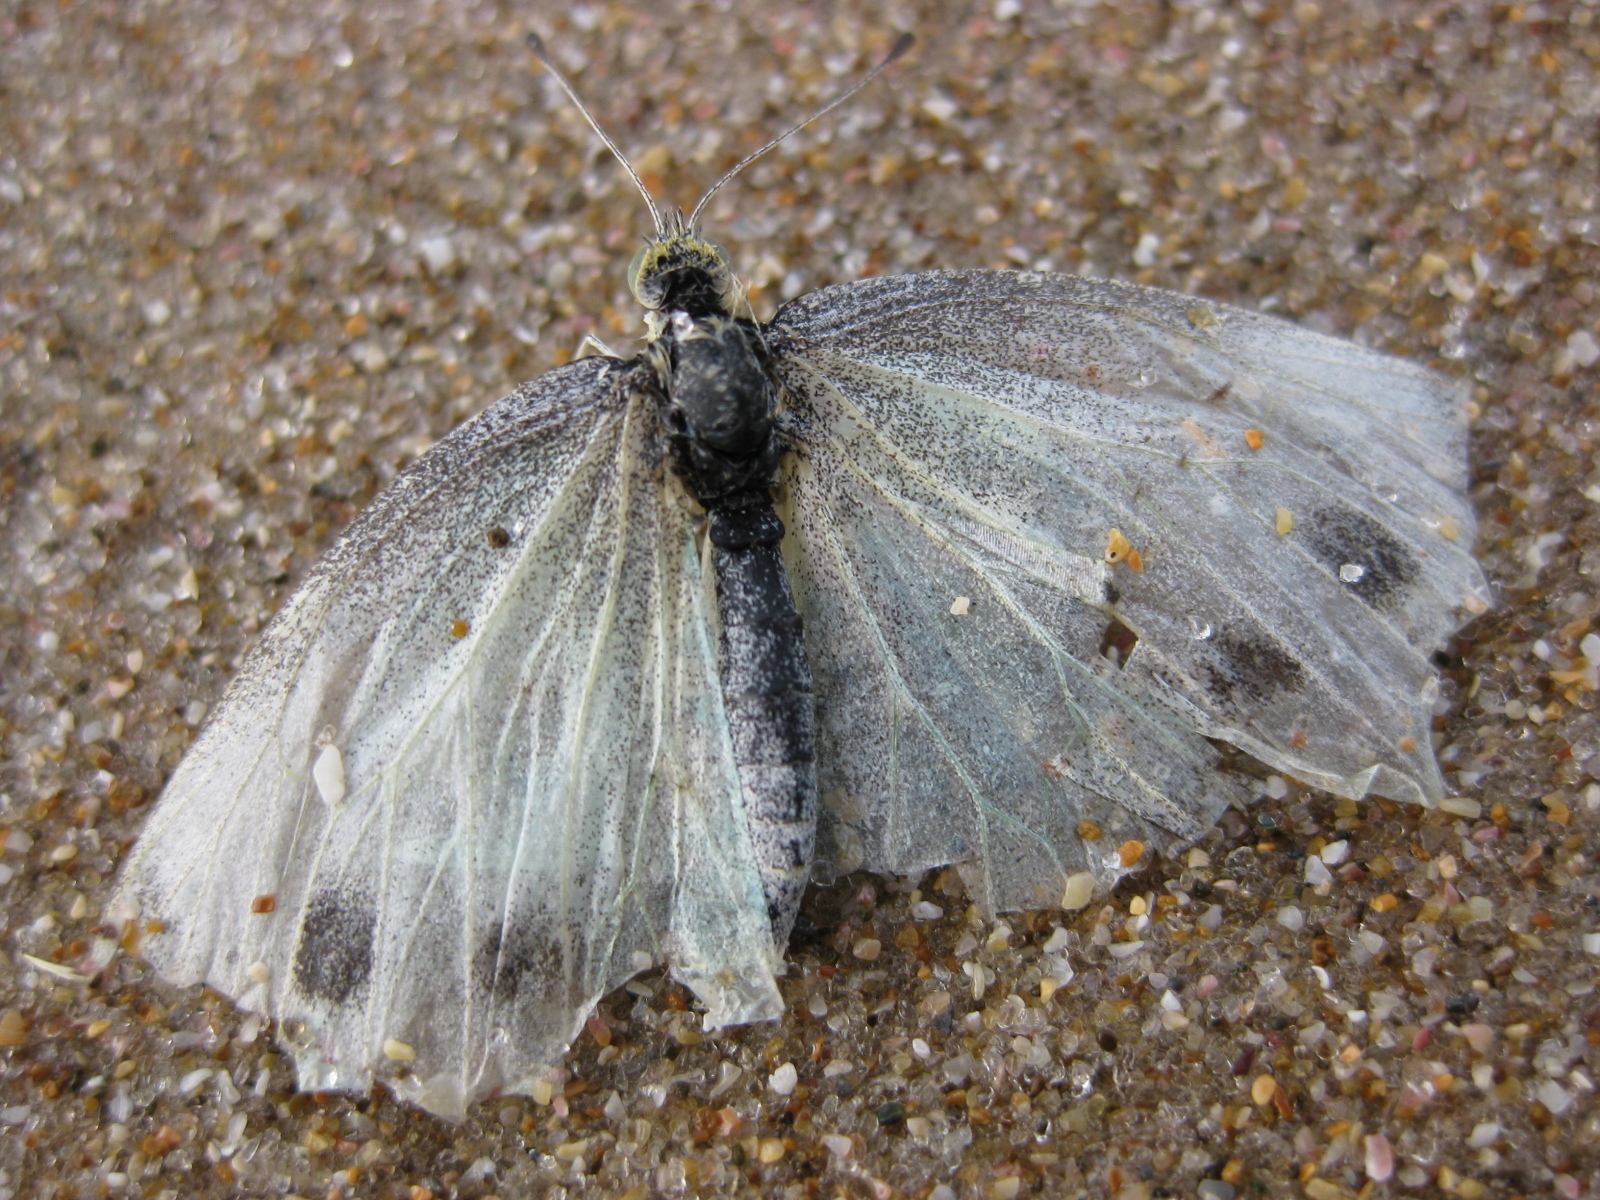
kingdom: Animalia
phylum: Arthropoda
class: Insecta
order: Lepidoptera
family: Pieridae
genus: Pieris
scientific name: Pieris rapae
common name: Small white
